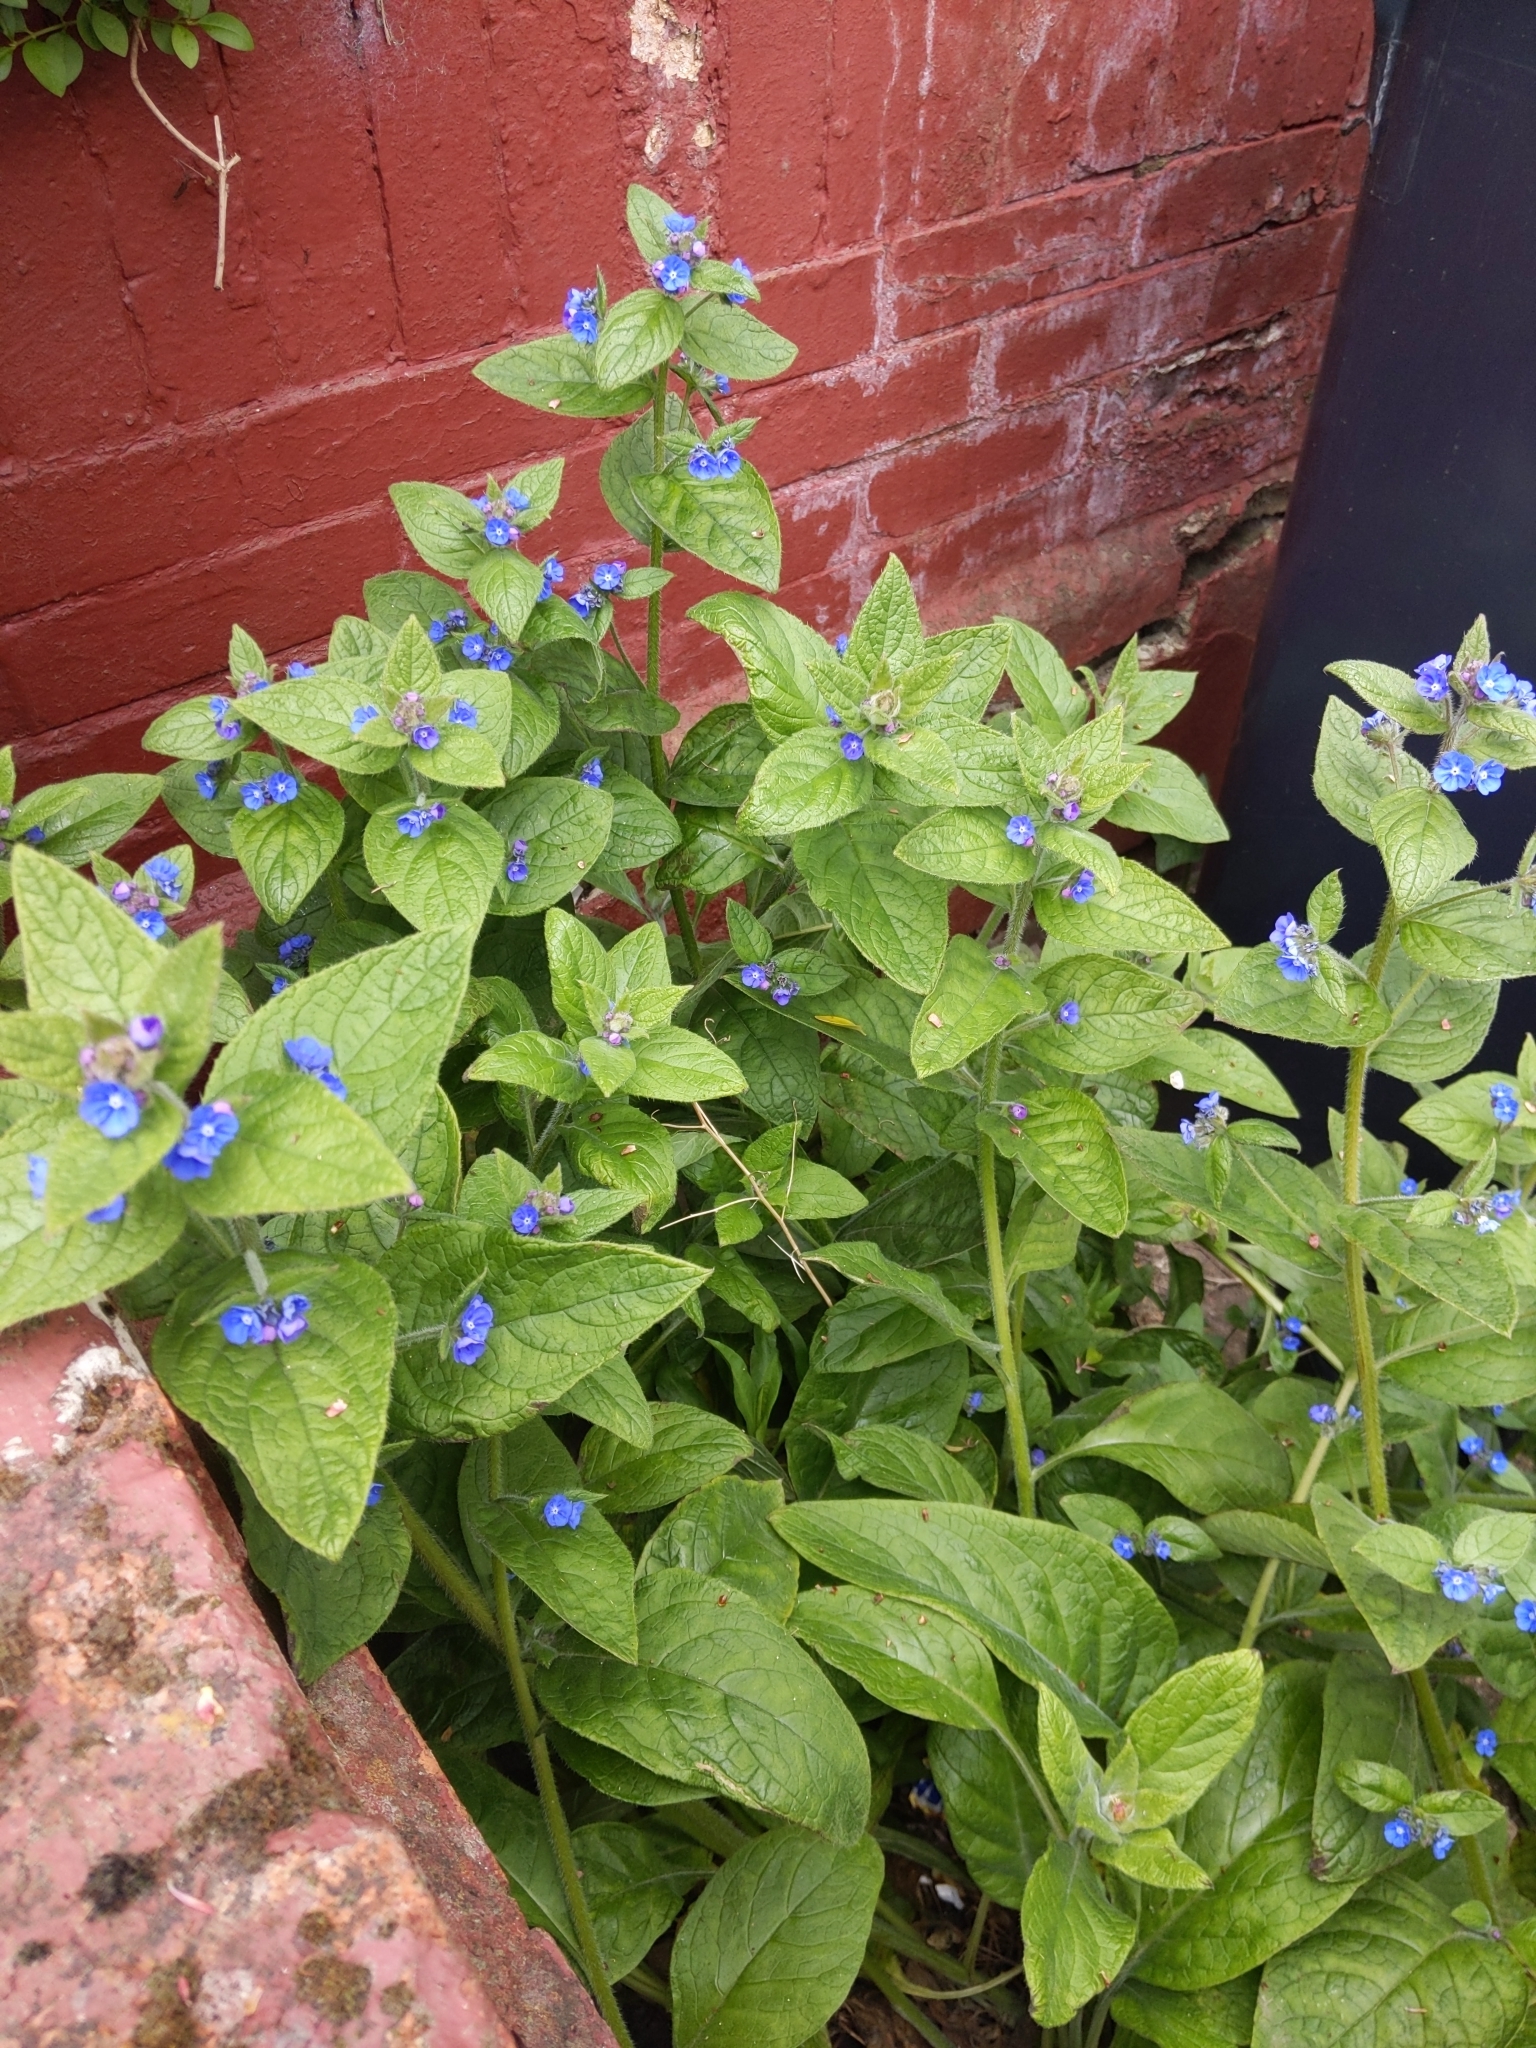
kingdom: Plantae
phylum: Tracheophyta
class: Magnoliopsida
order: Boraginales
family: Boraginaceae
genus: Pentaglottis
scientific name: Pentaglottis sempervirens
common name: Green alkanet
